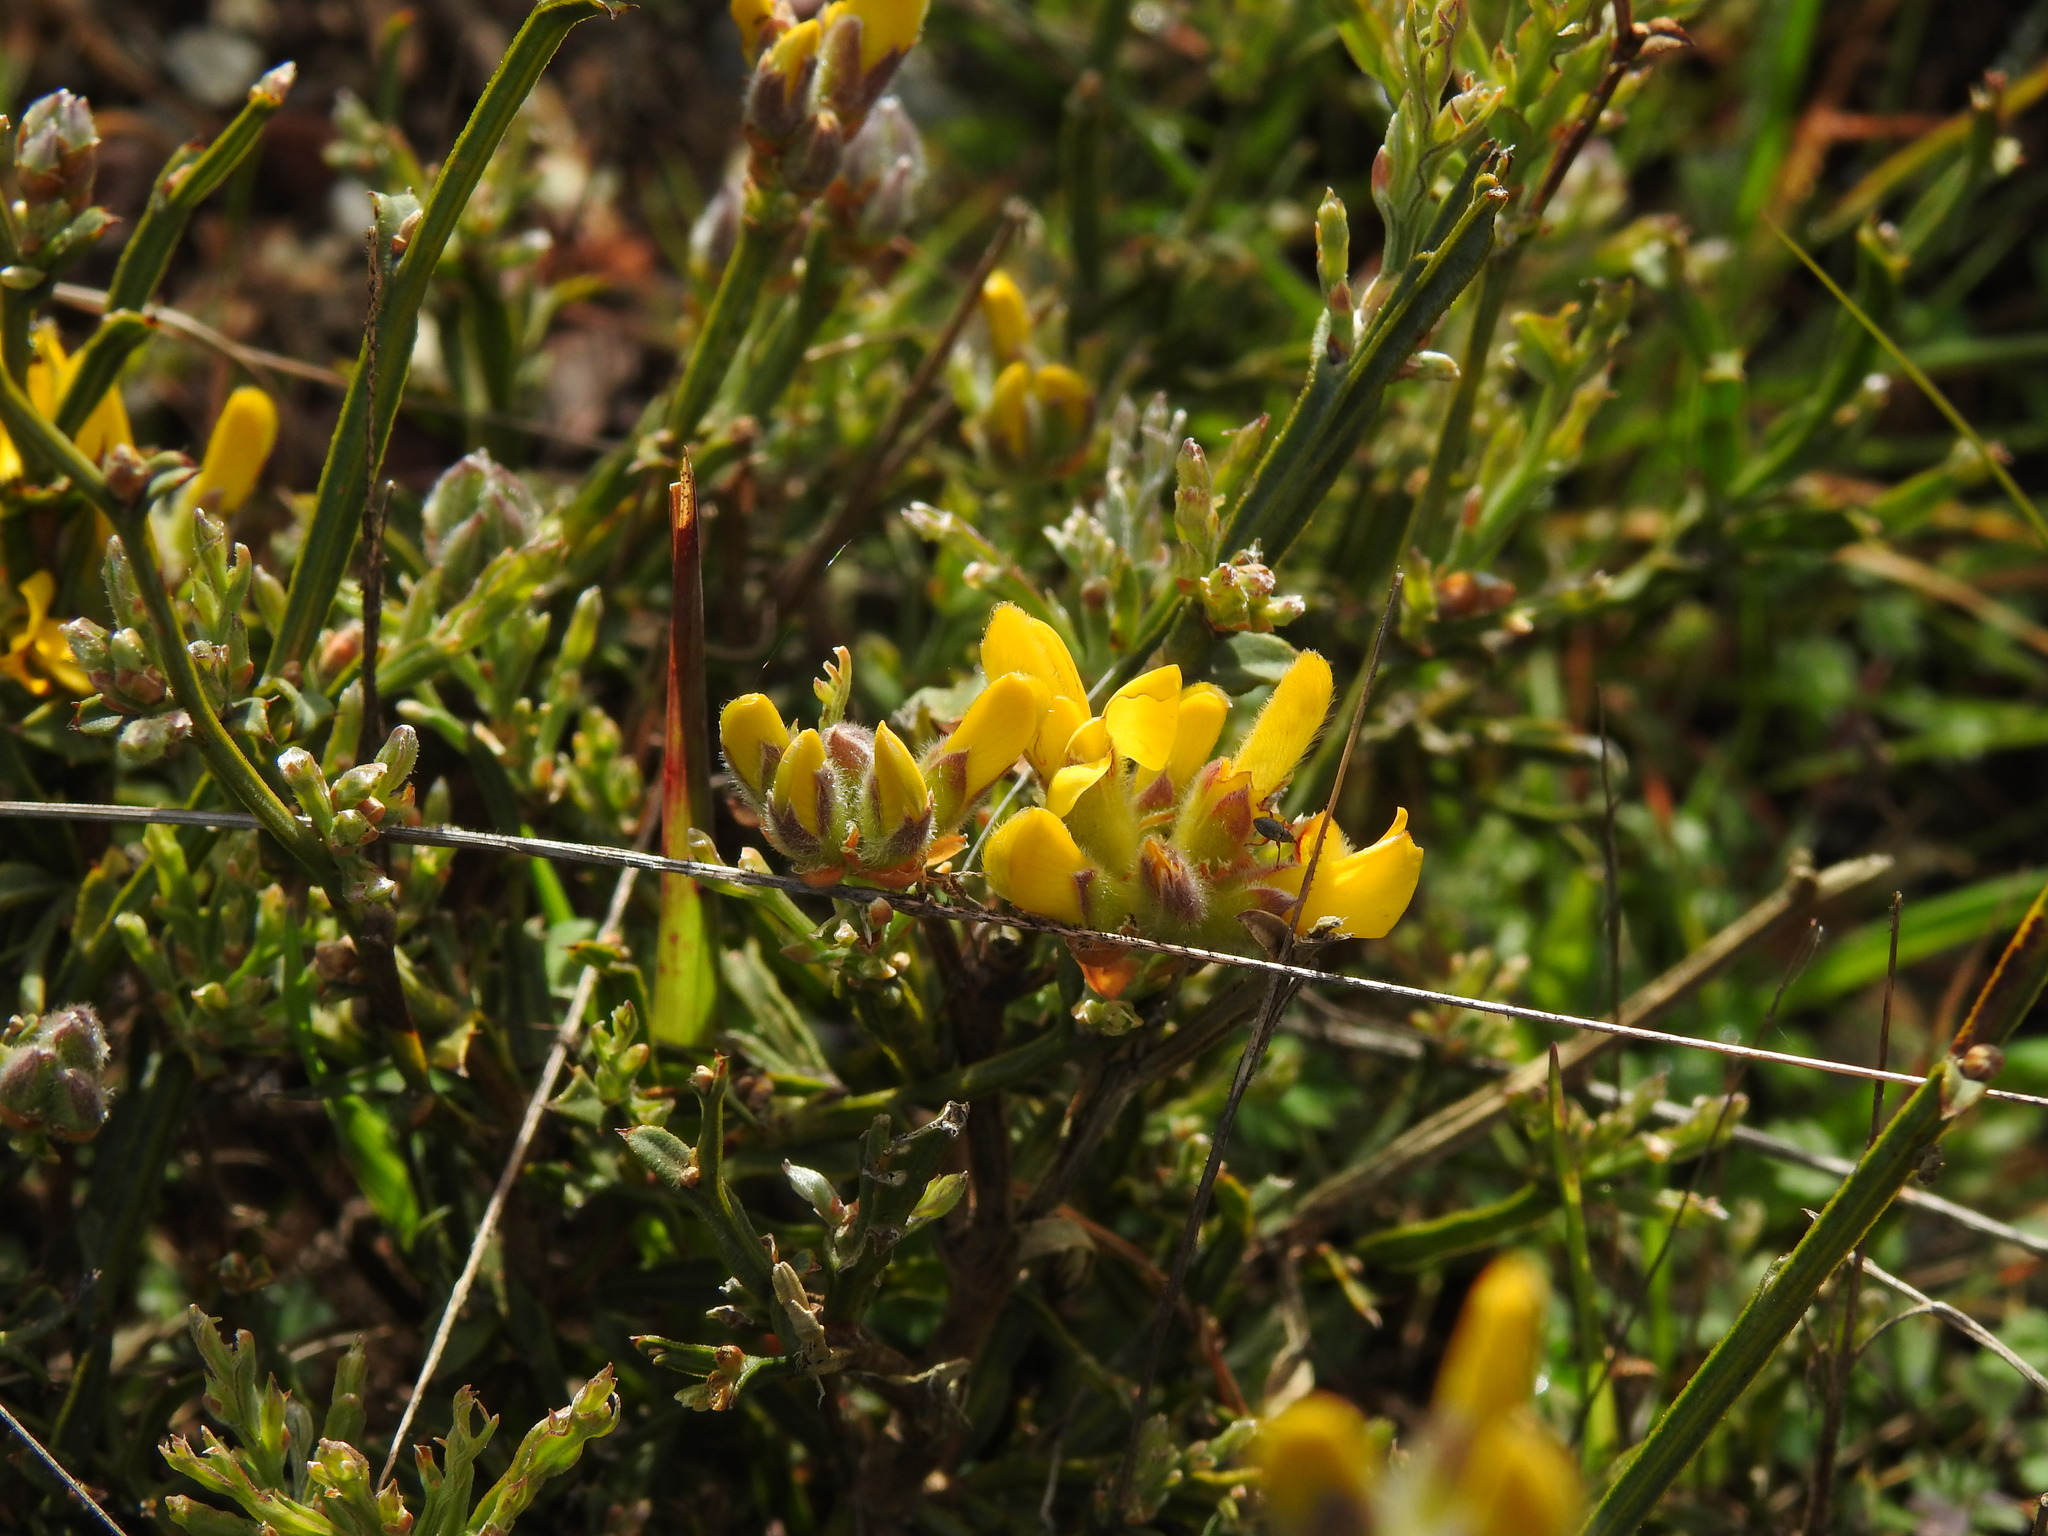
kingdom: Plantae
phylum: Tracheophyta
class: Magnoliopsida
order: Fabales
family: Fabaceae
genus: Genista
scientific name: Genista tridentata
